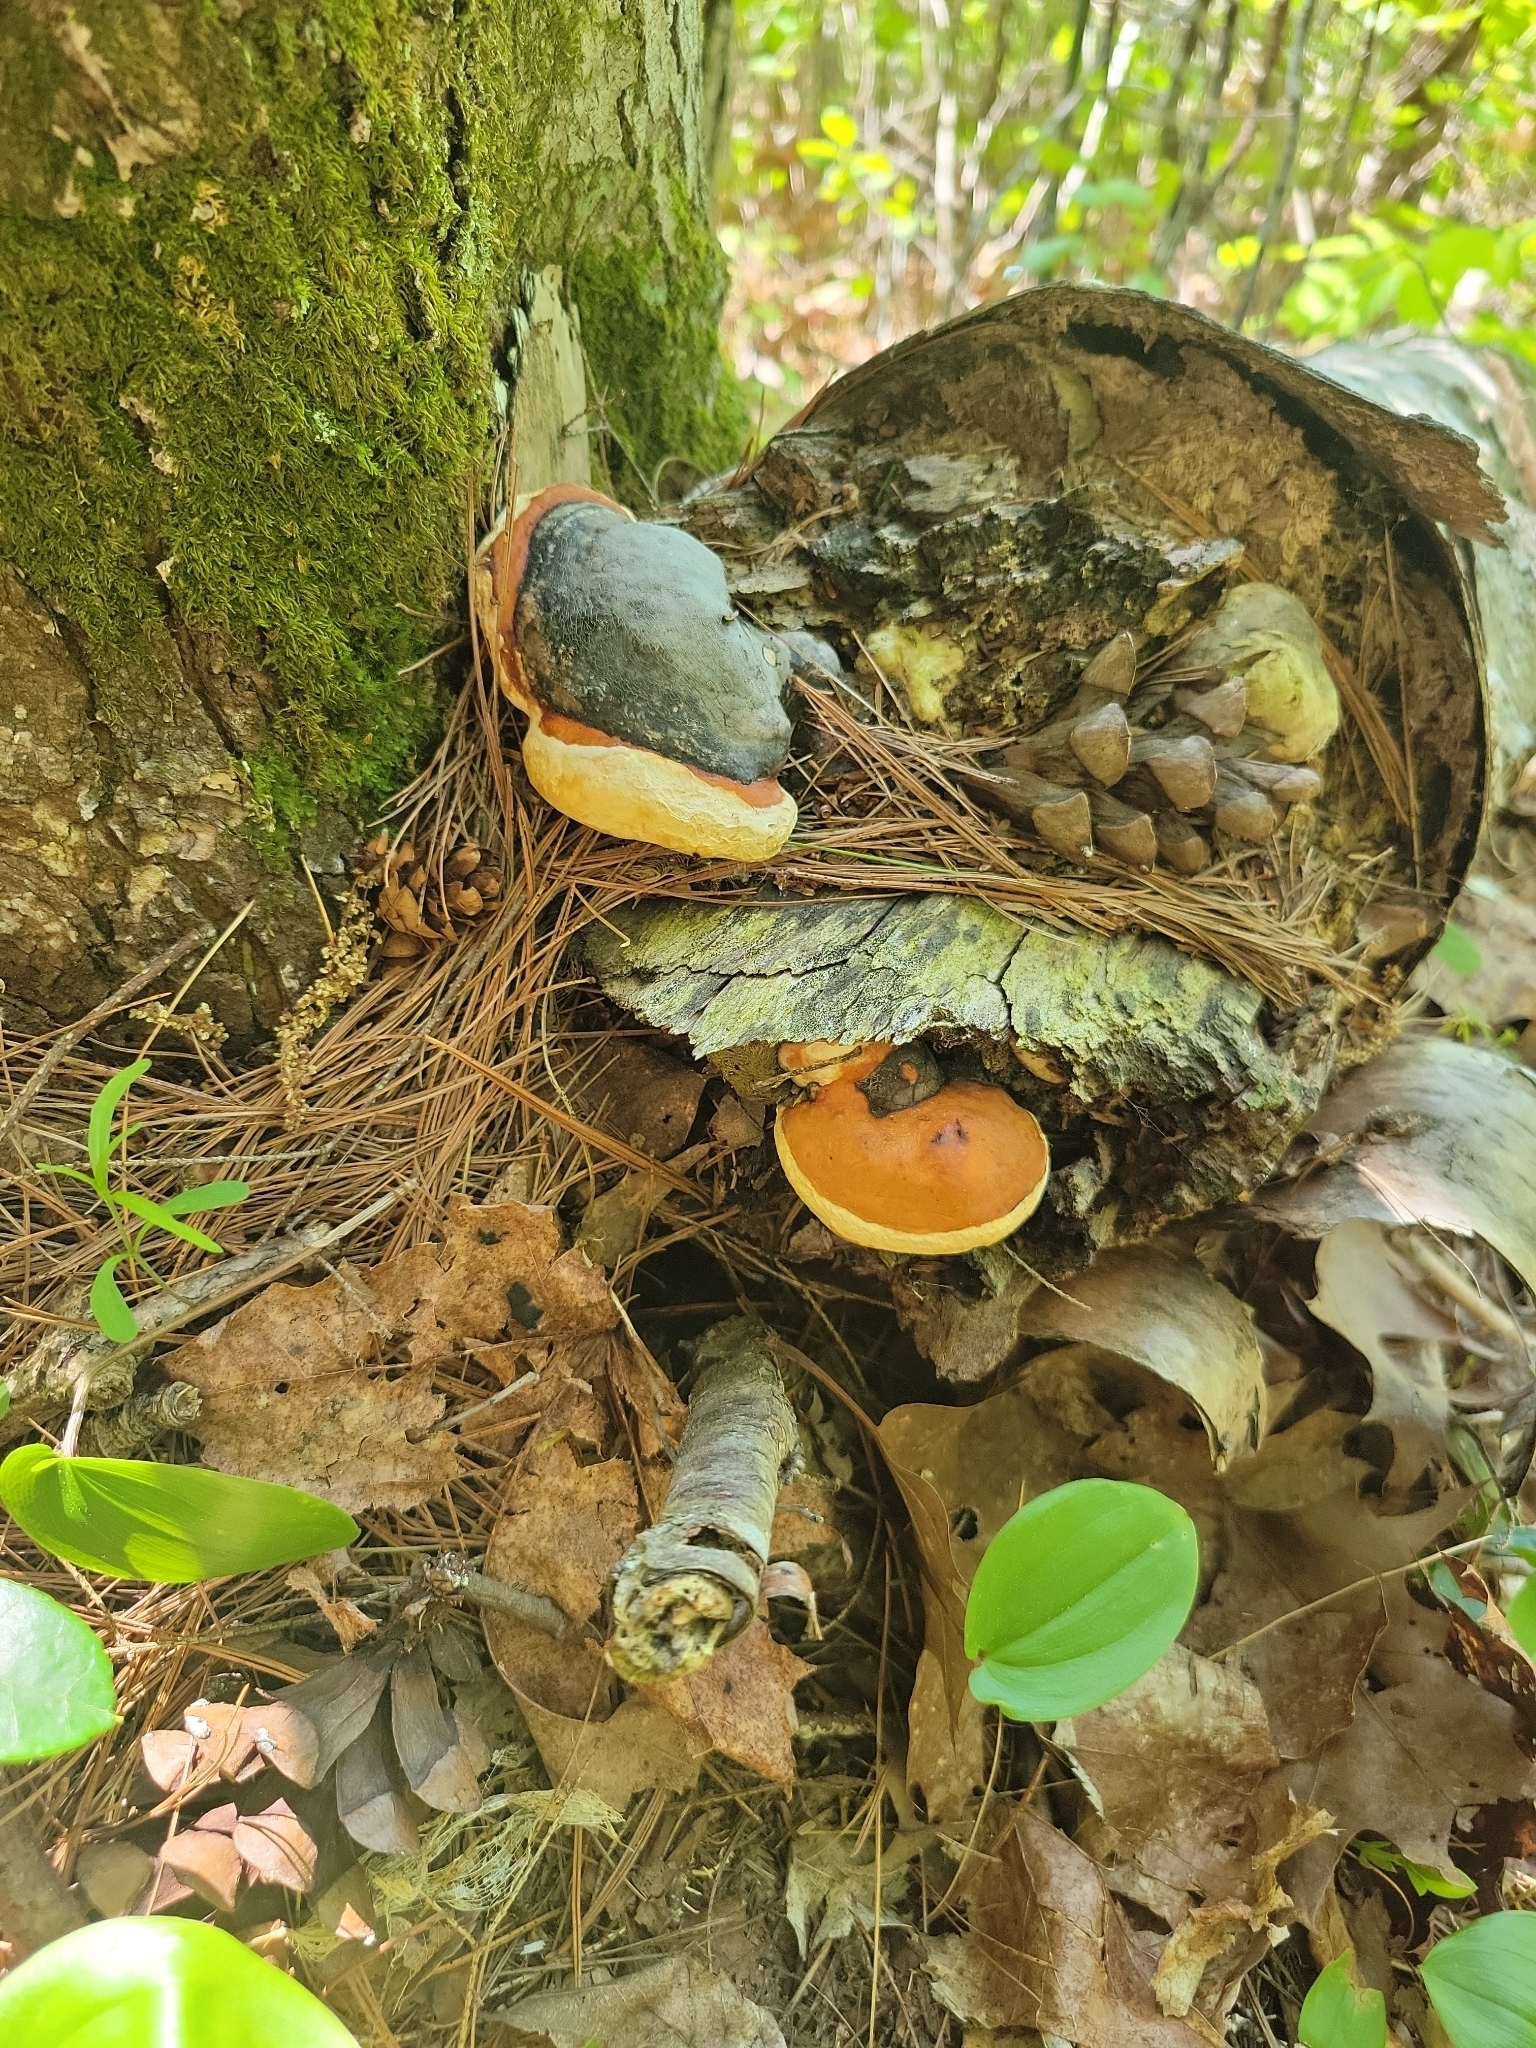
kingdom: Fungi
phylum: Basidiomycota
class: Agaricomycetes
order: Polyporales
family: Fomitopsidaceae
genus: Fomitopsis
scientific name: Fomitopsis mounceae
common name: Northern red belt
